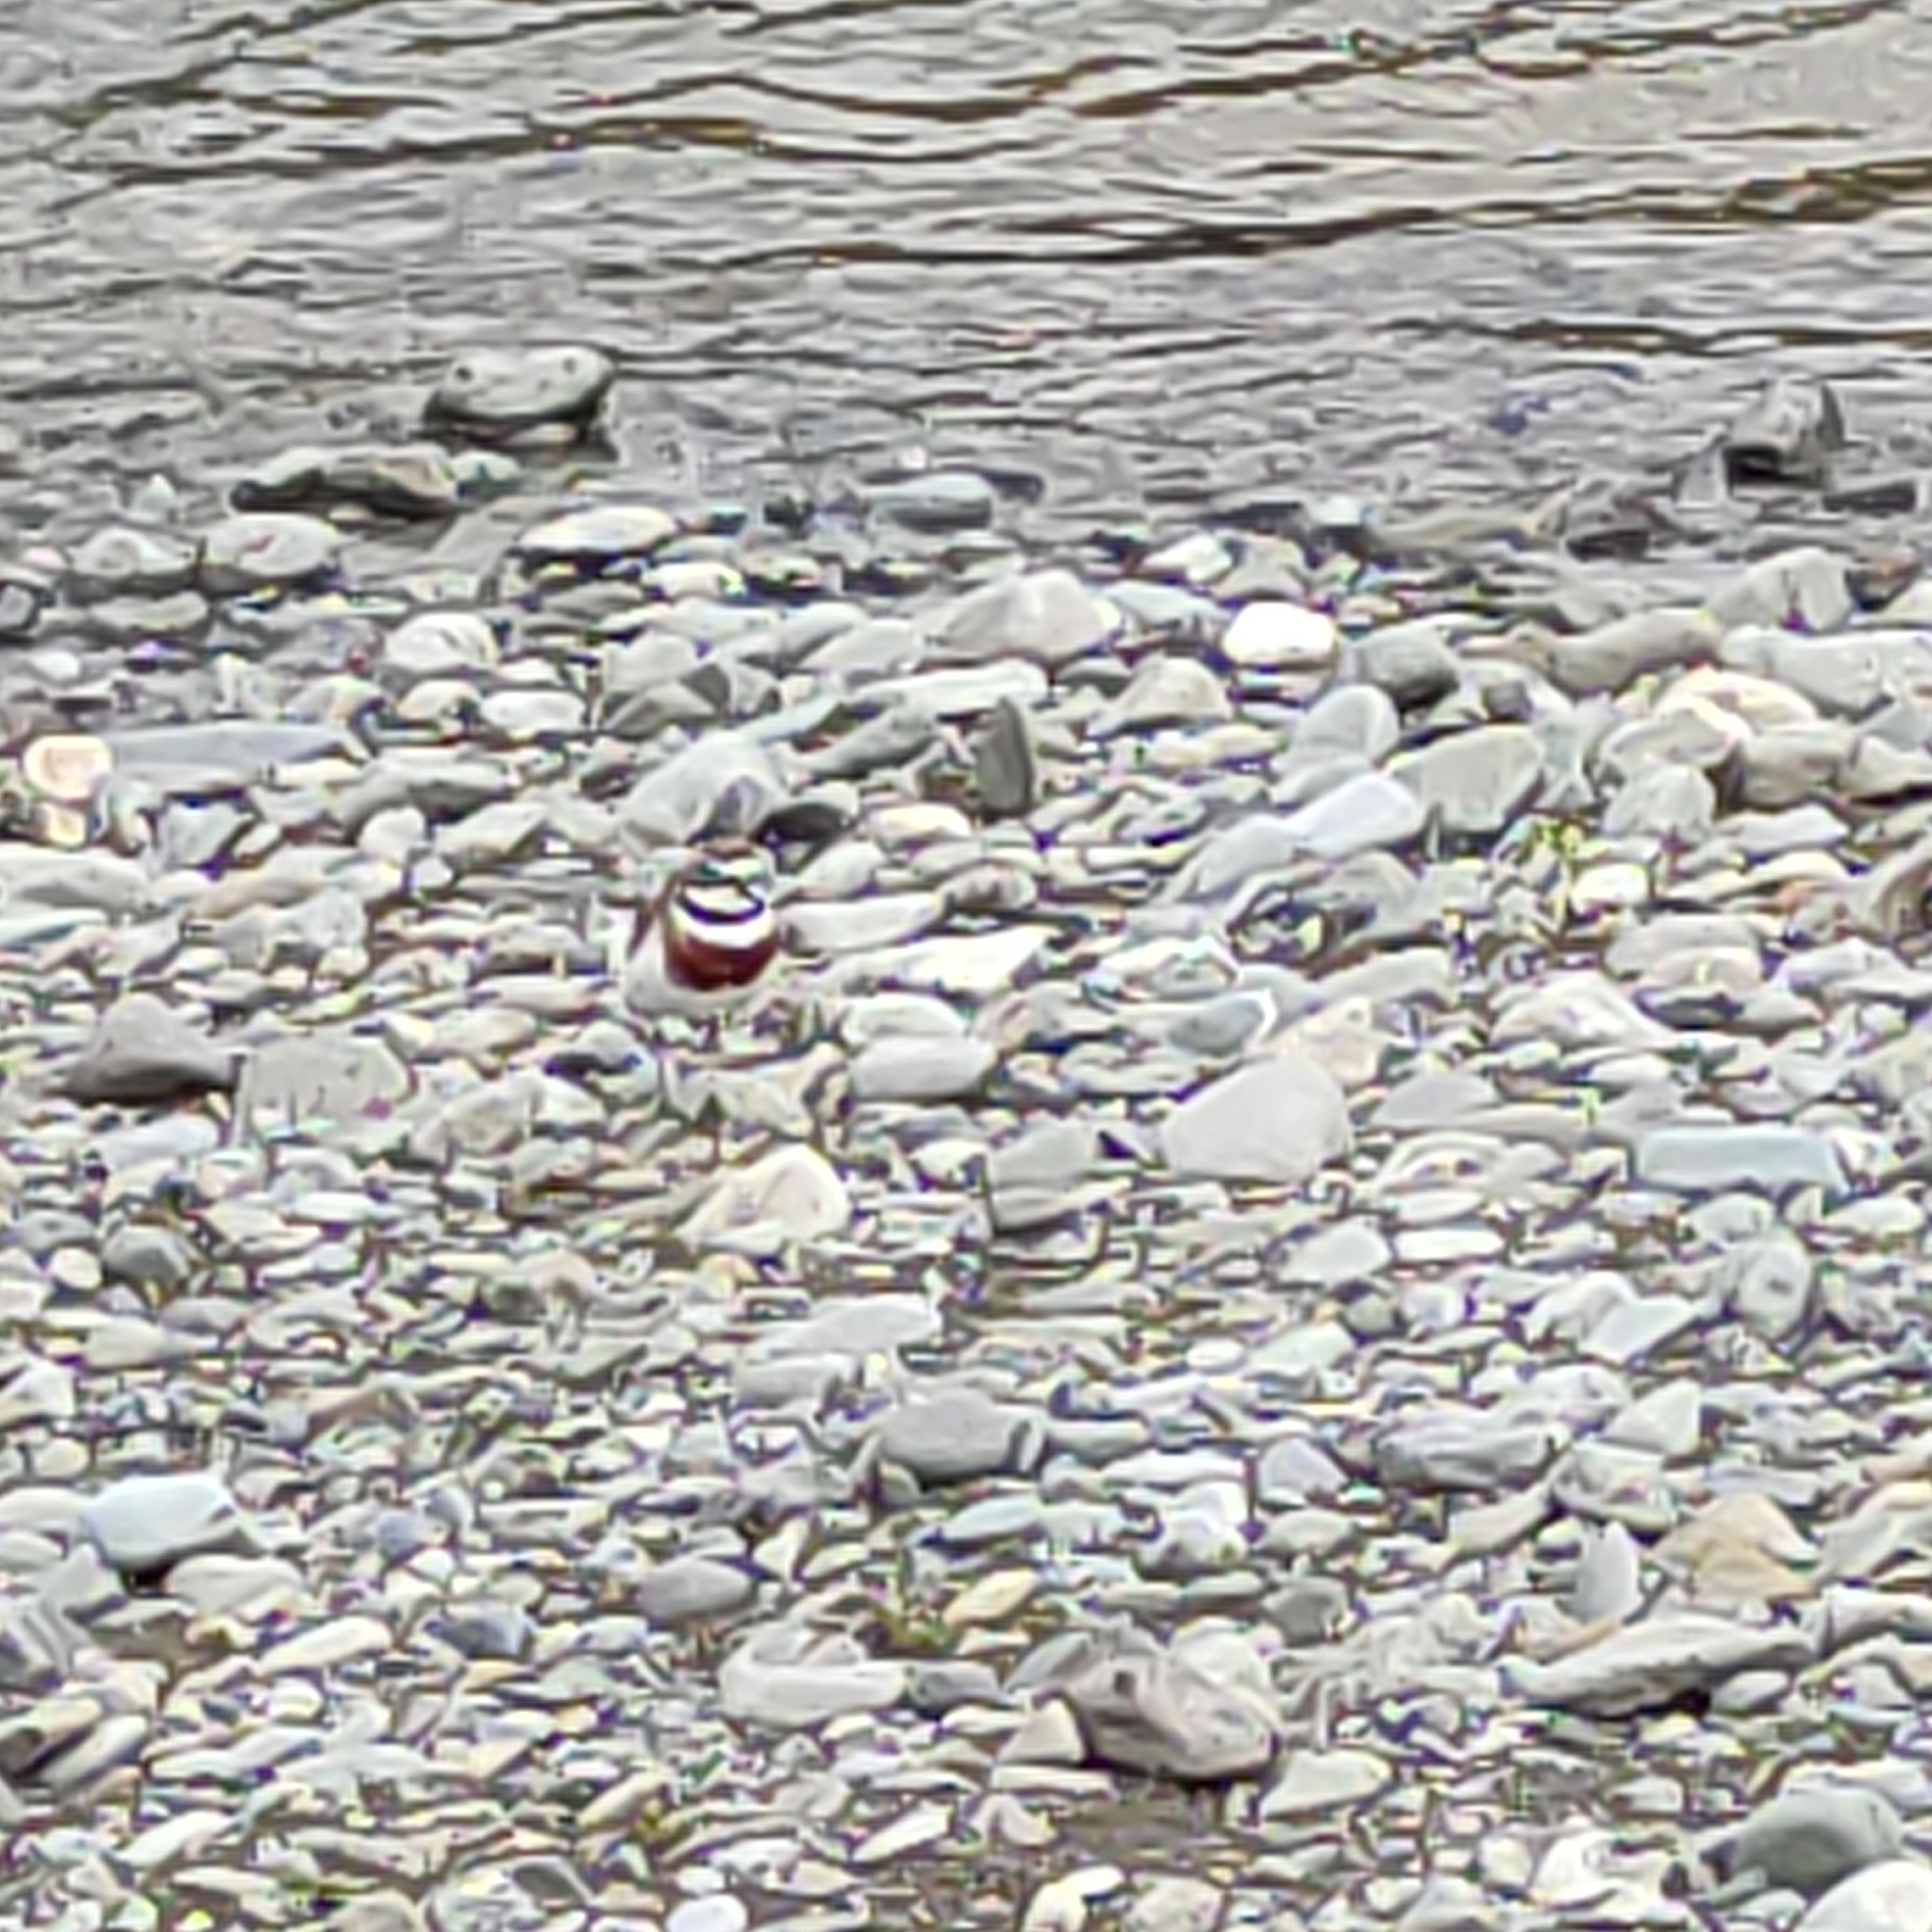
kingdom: Animalia
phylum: Chordata
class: Aves
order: Charadriiformes
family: Charadriidae
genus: Anarhynchus
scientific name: Anarhynchus
